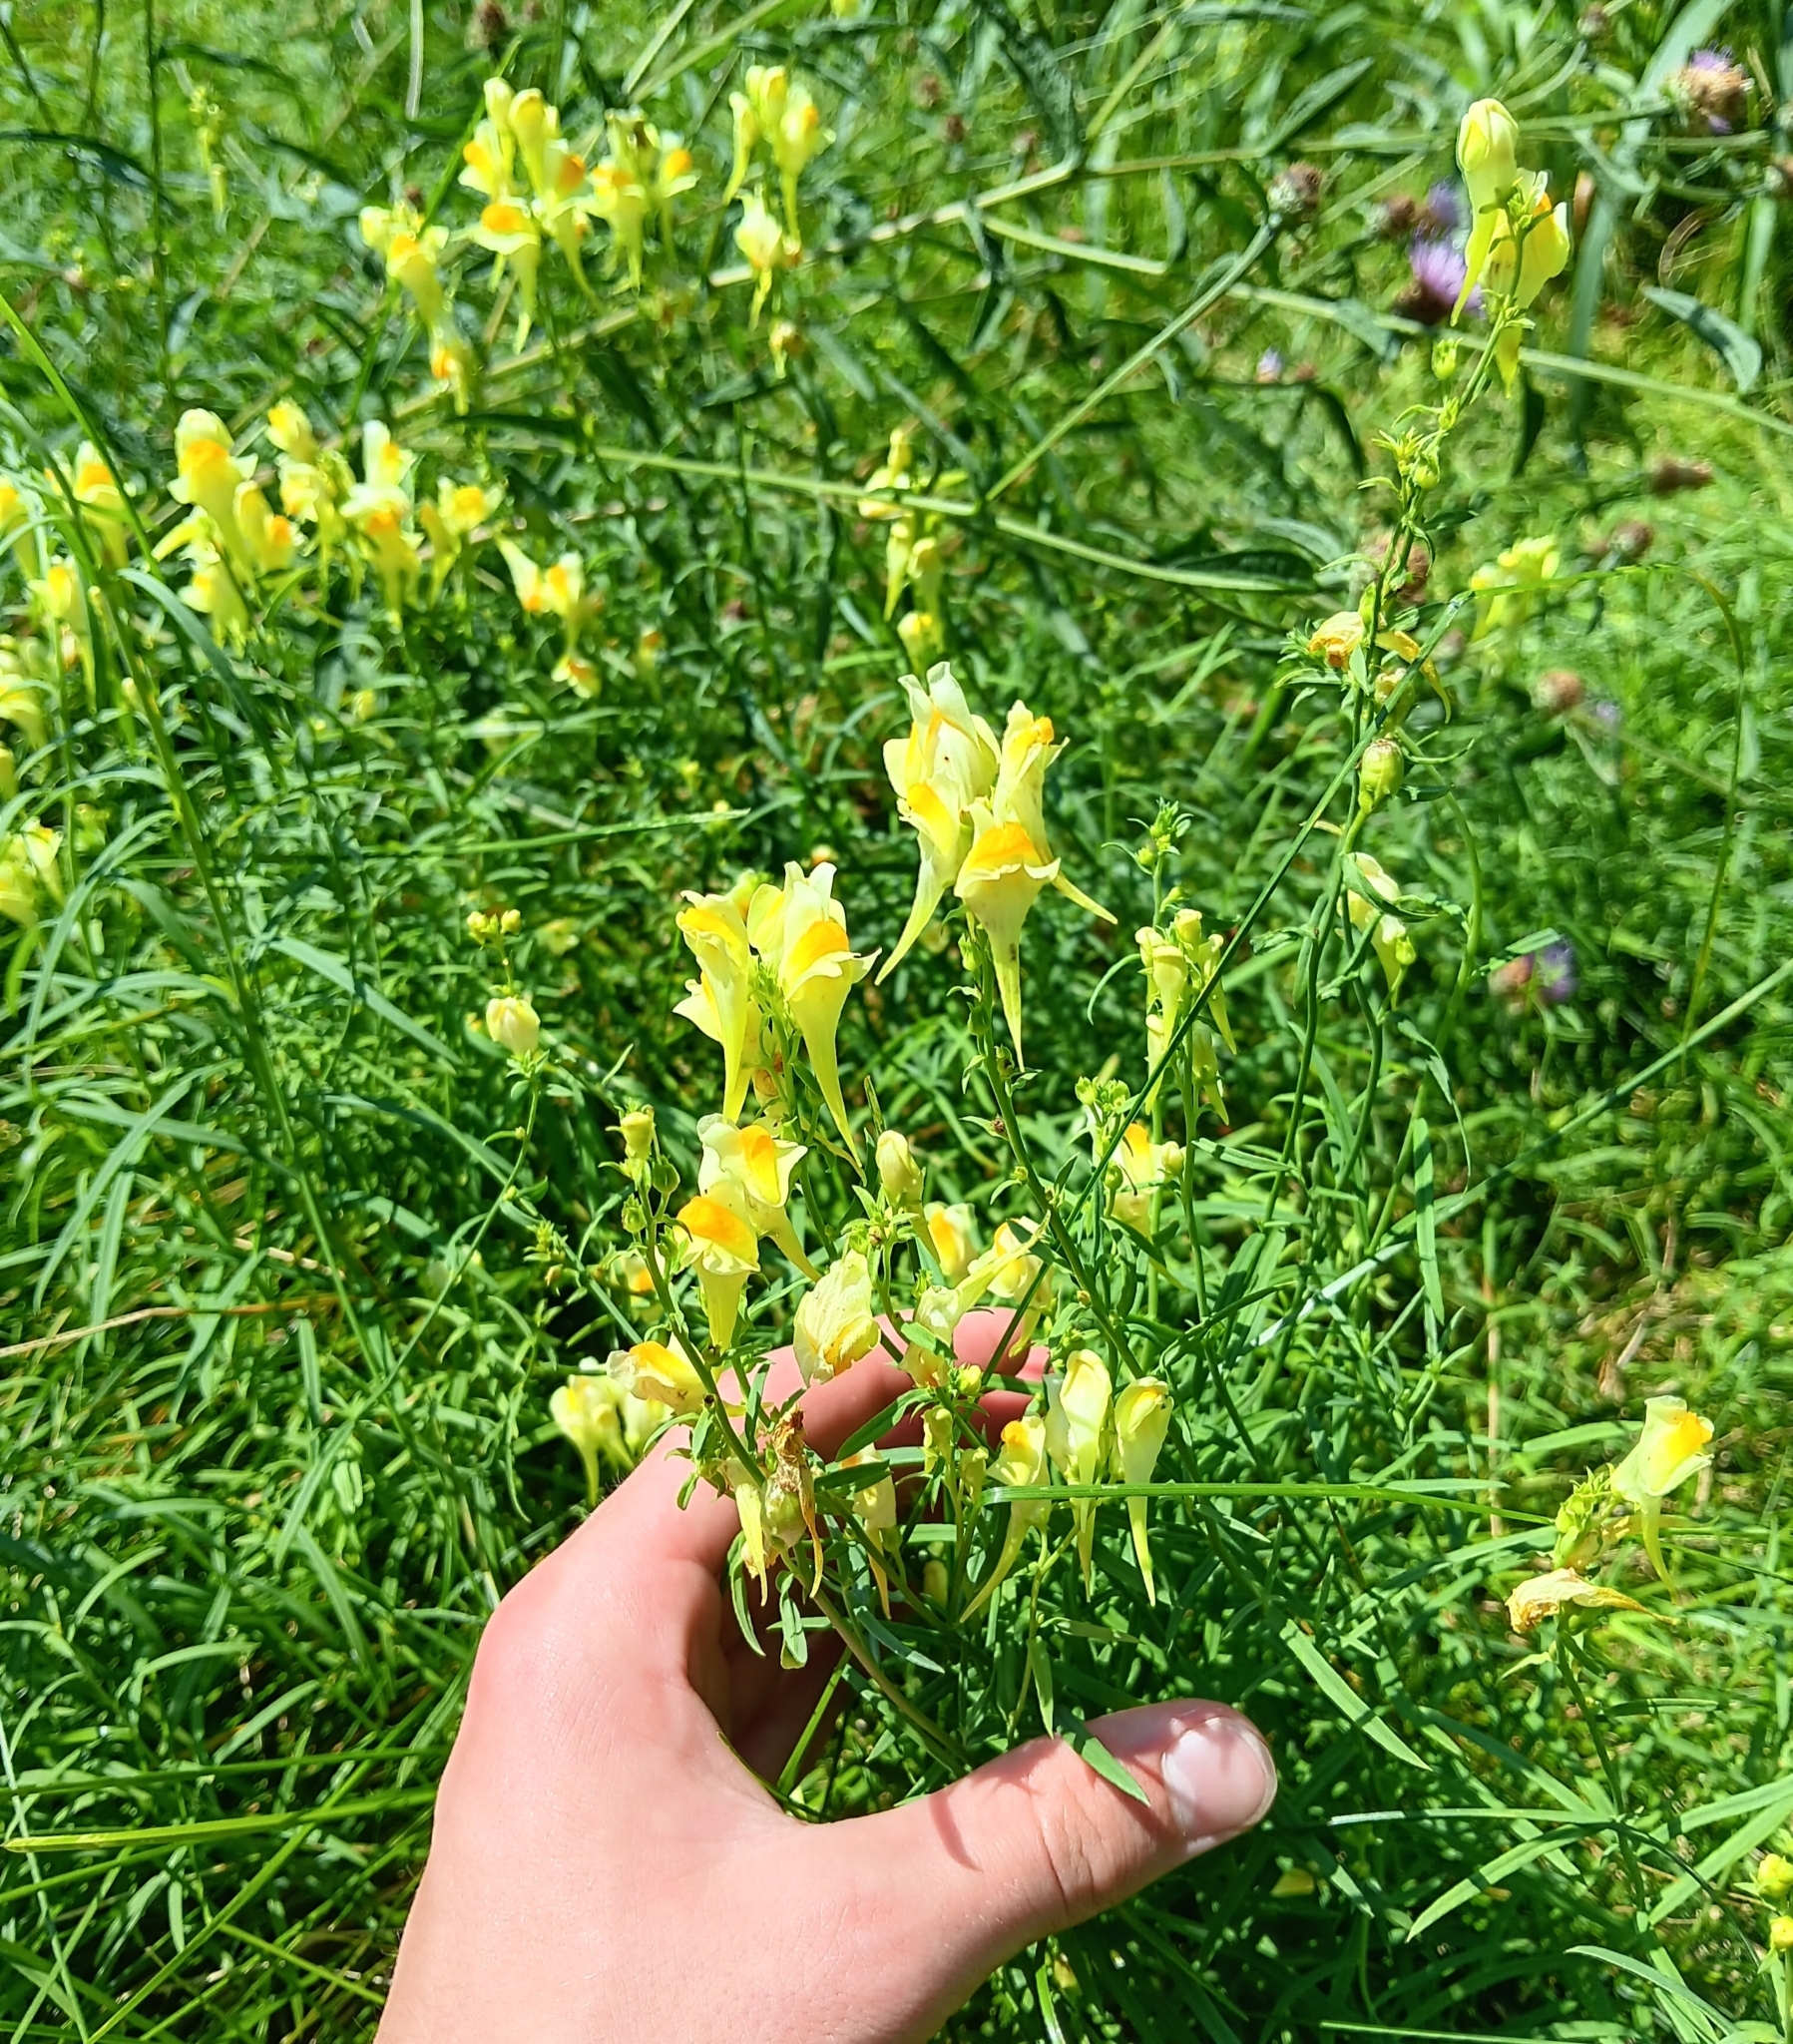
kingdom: Plantae
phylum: Tracheophyta
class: Magnoliopsida
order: Lamiales
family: Plantaginaceae
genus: Linaria
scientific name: Linaria vulgaris
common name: Butter and eggs
